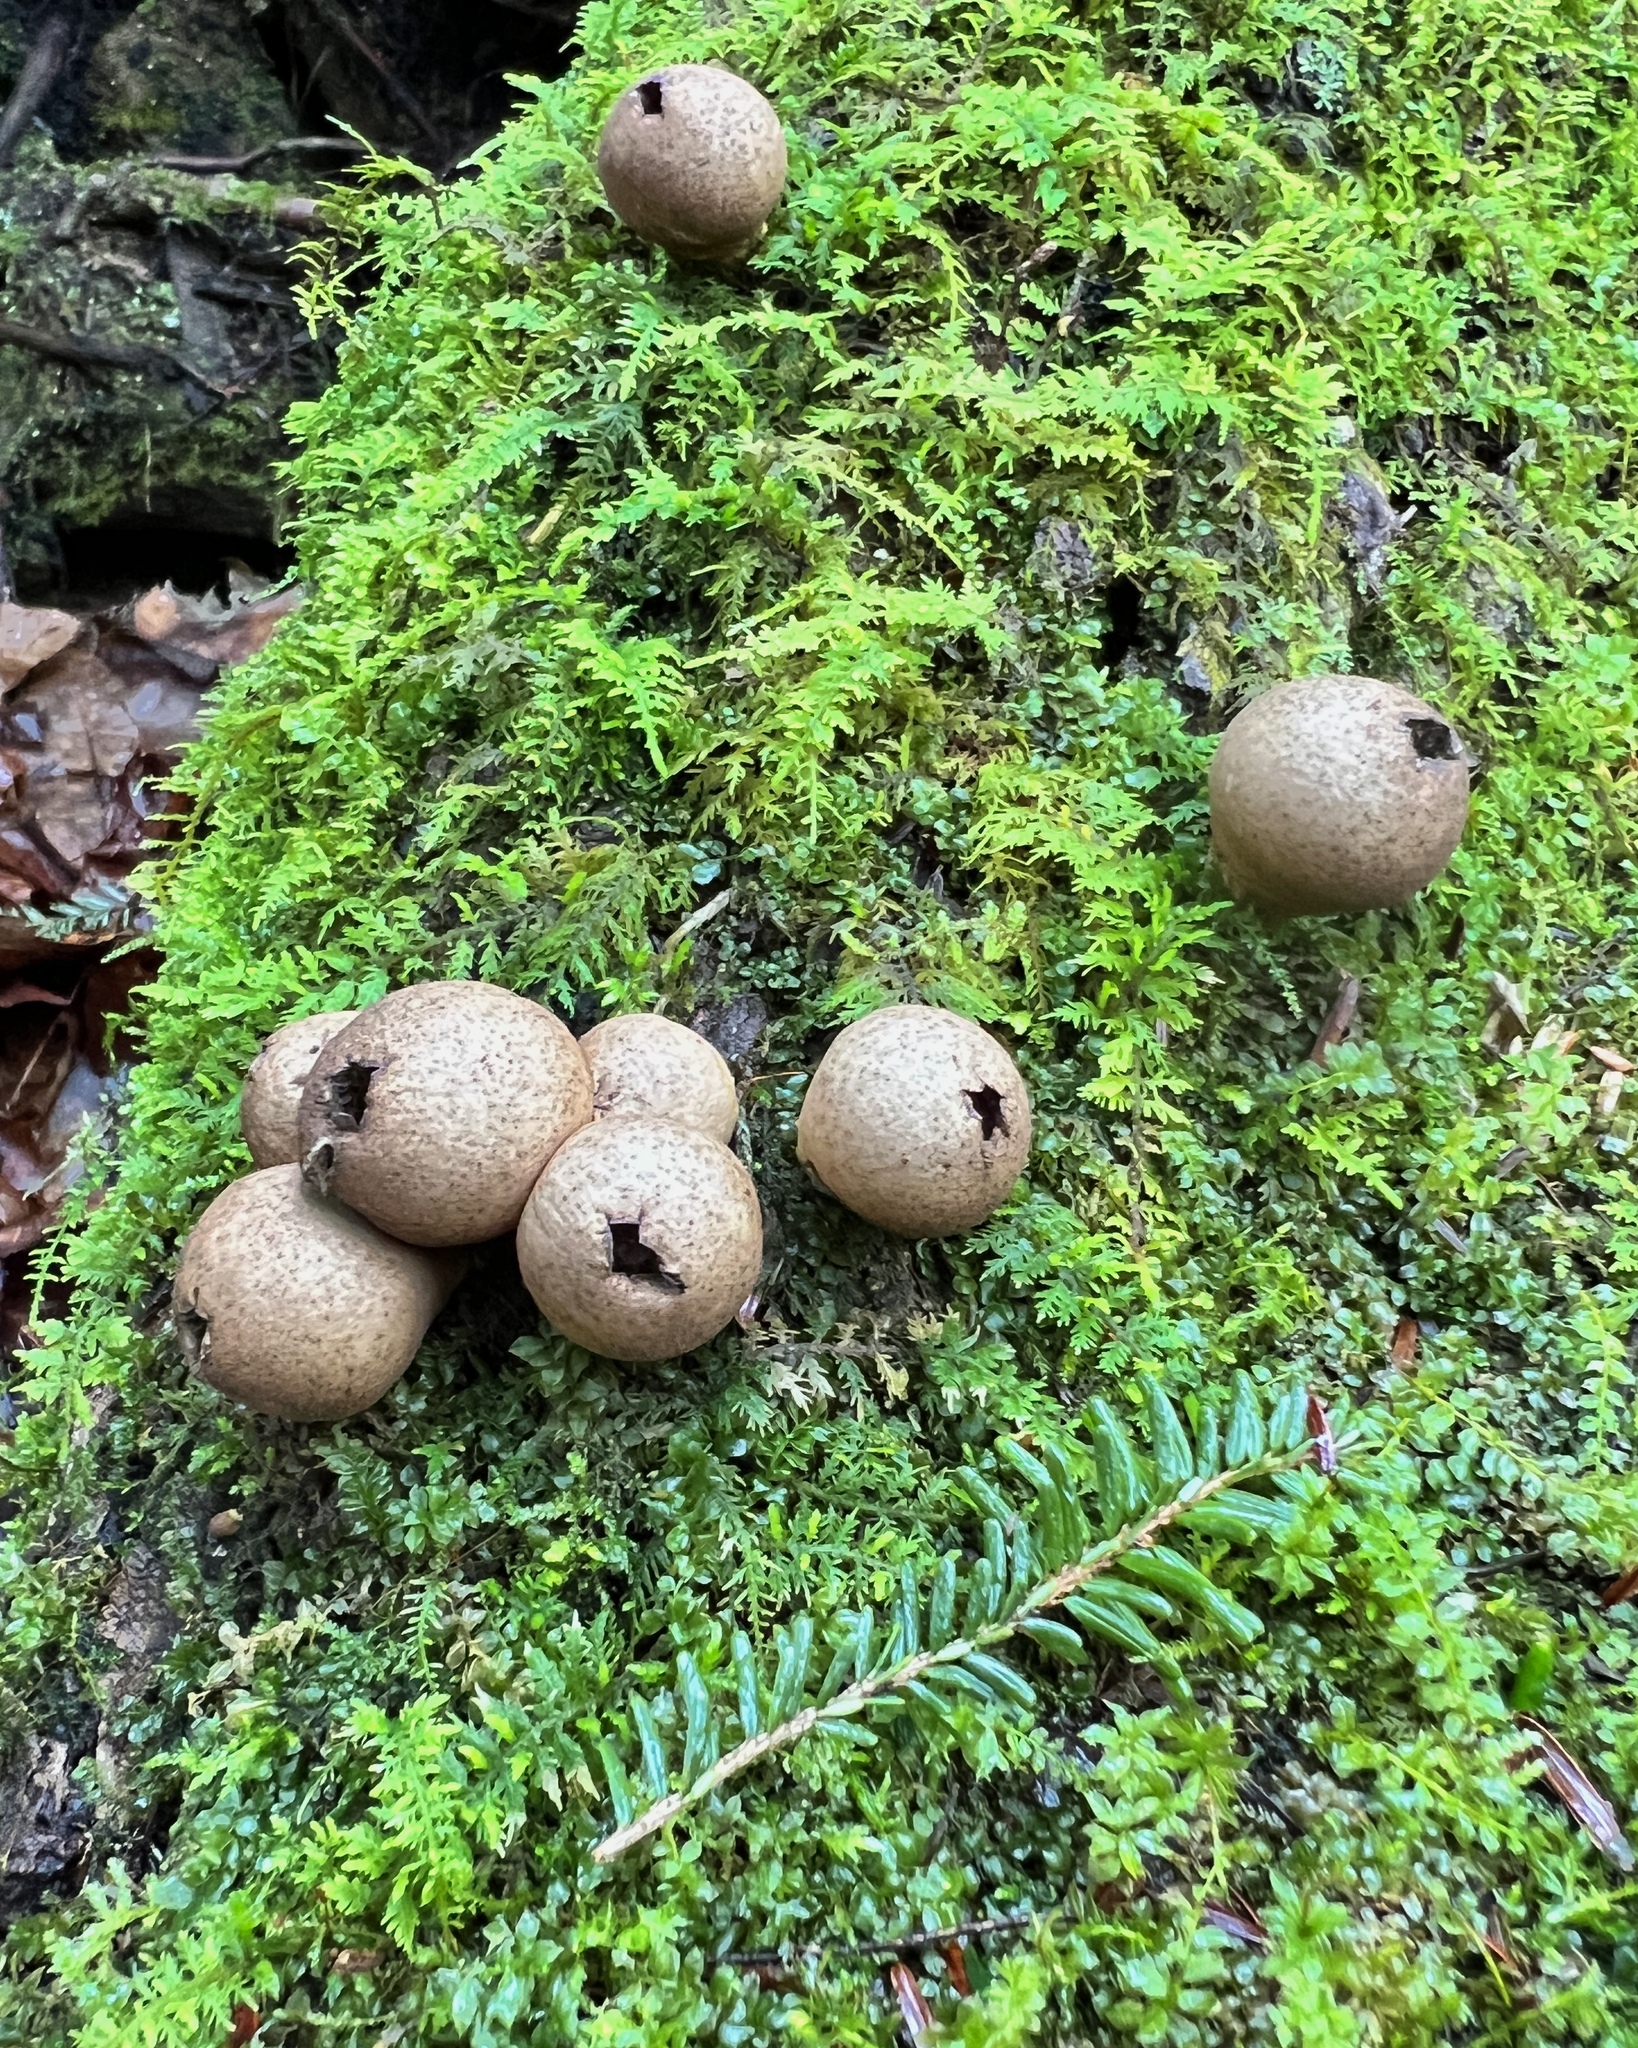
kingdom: Fungi
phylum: Basidiomycota
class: Agaricomycetes
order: Agaricales
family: Lycoperdaceae
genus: Apioperdon
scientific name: Apioperdon pyriforme
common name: Pear-shaped puffball
